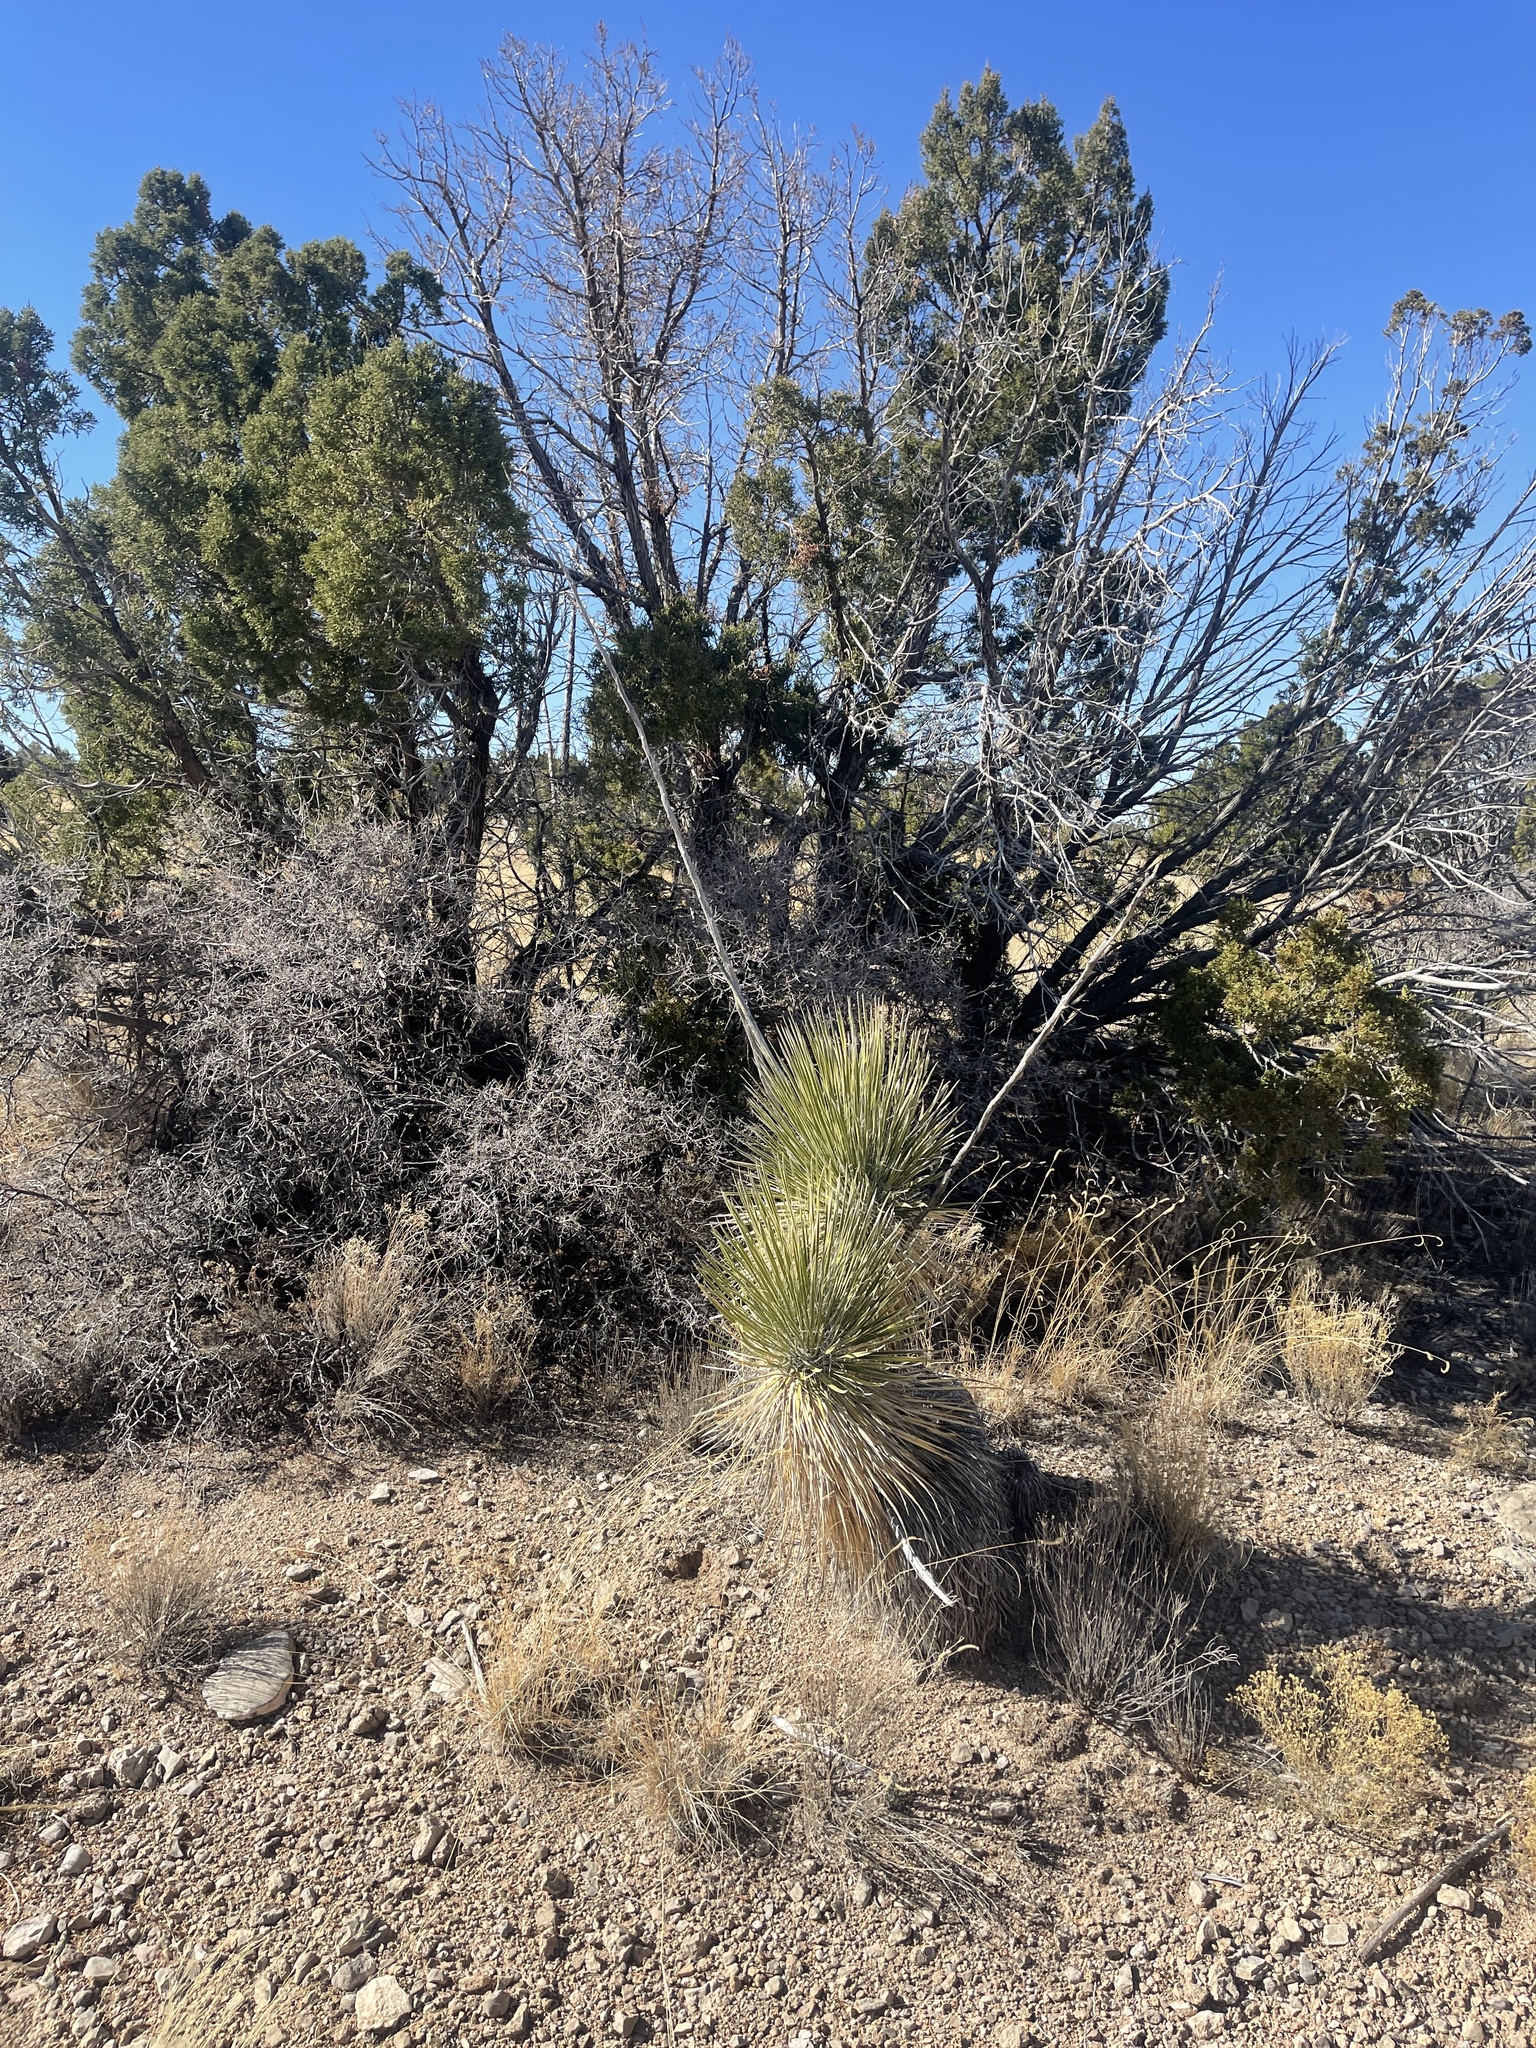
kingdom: Plantae
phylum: Tracheophyta
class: Liliopsida
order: Asparagales
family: Asparagaceae
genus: Yucca
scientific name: Yucca elata
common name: Palmella
